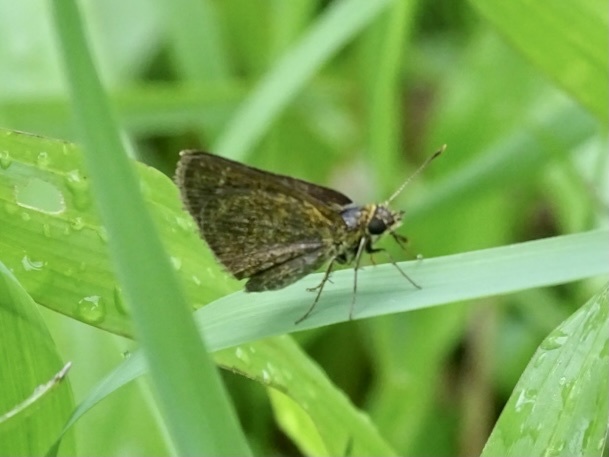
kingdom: Animalia
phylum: Arthropoda
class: Insecta
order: Lepidoptera
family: Hesperiidae
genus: Aeromachus
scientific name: Aeromachus jhora
